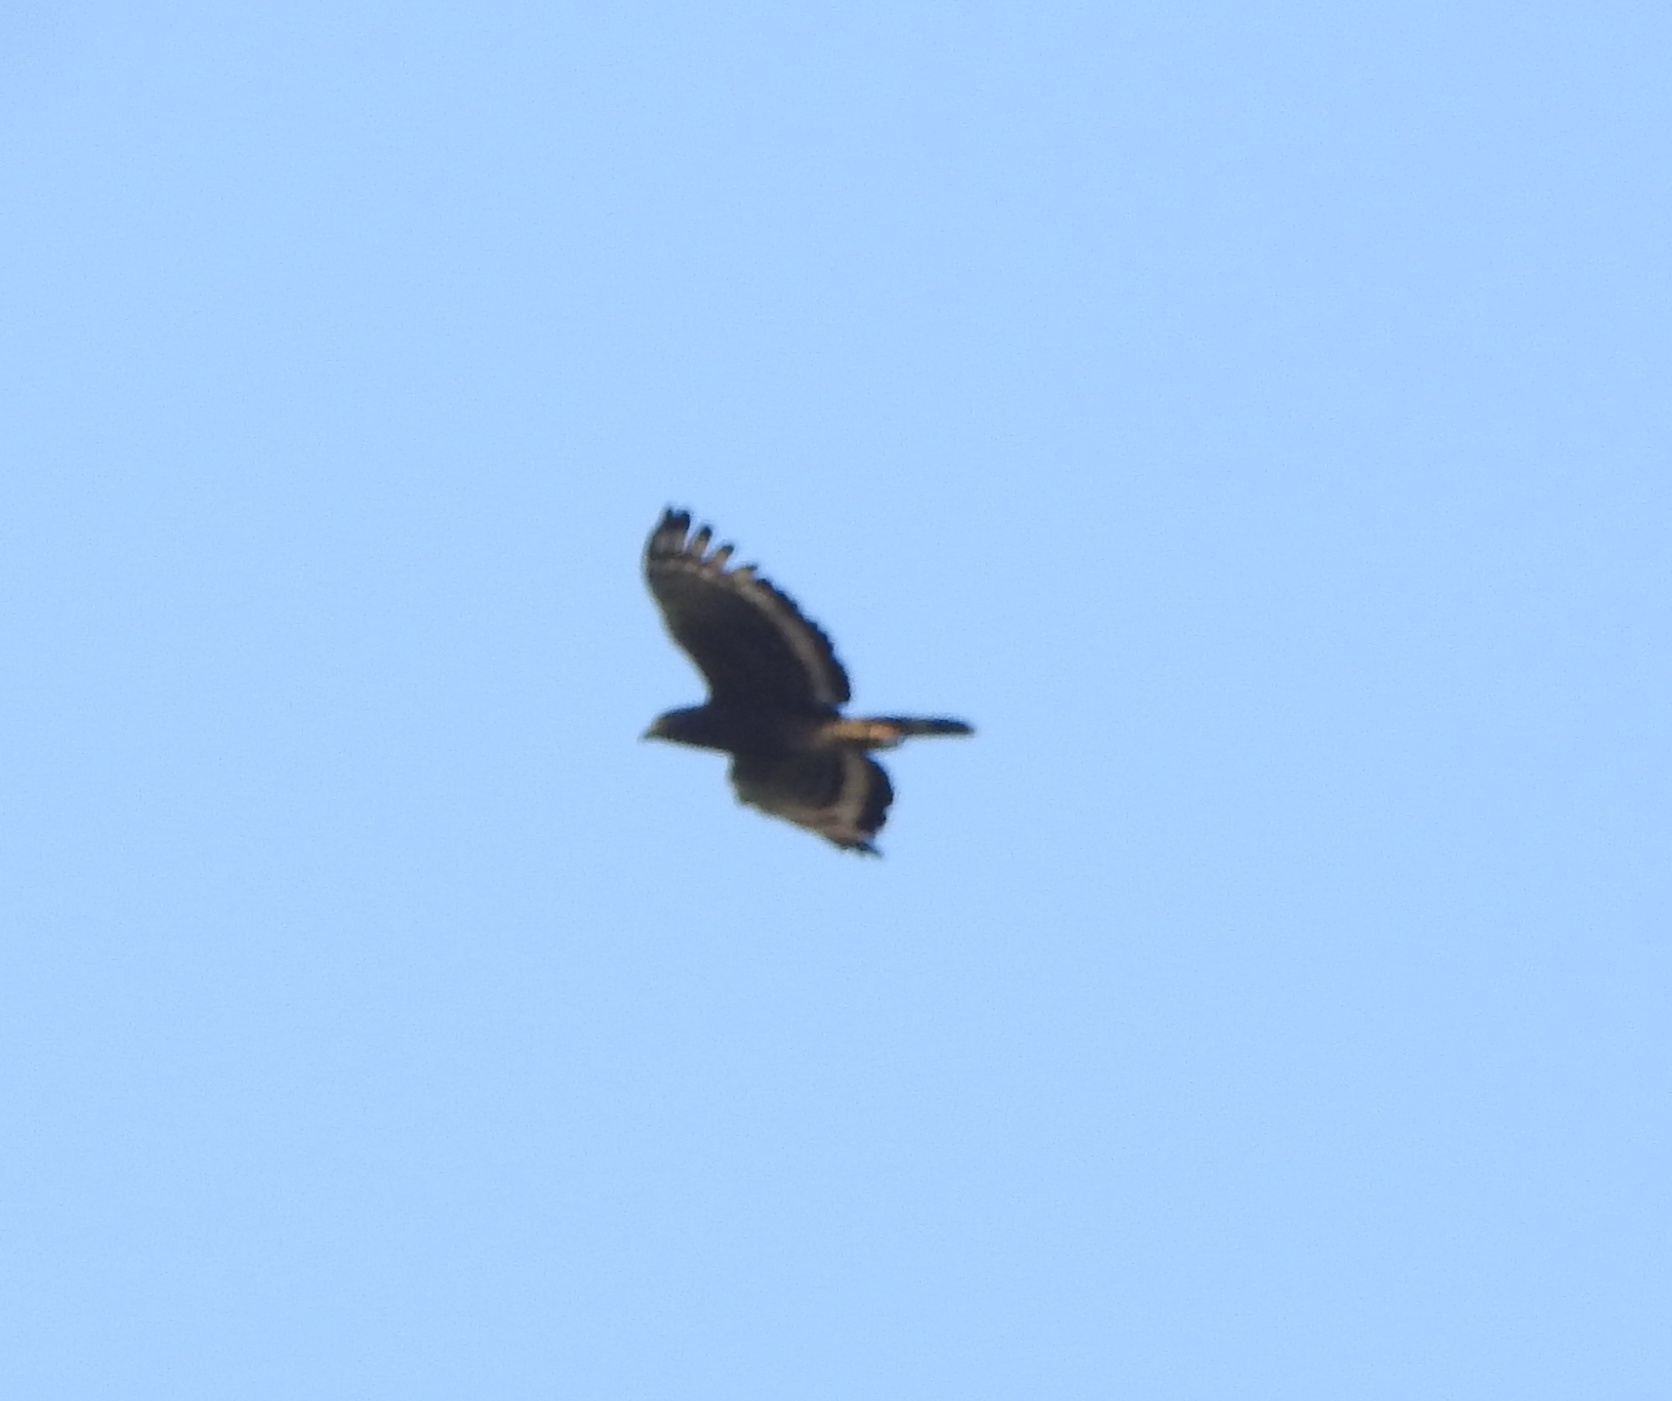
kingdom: Animalia
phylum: Chordata
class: Aves
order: Accipitriformes
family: Accipitridae
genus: Spilornis
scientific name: Spilornis cheela
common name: Crested serpent eagle
